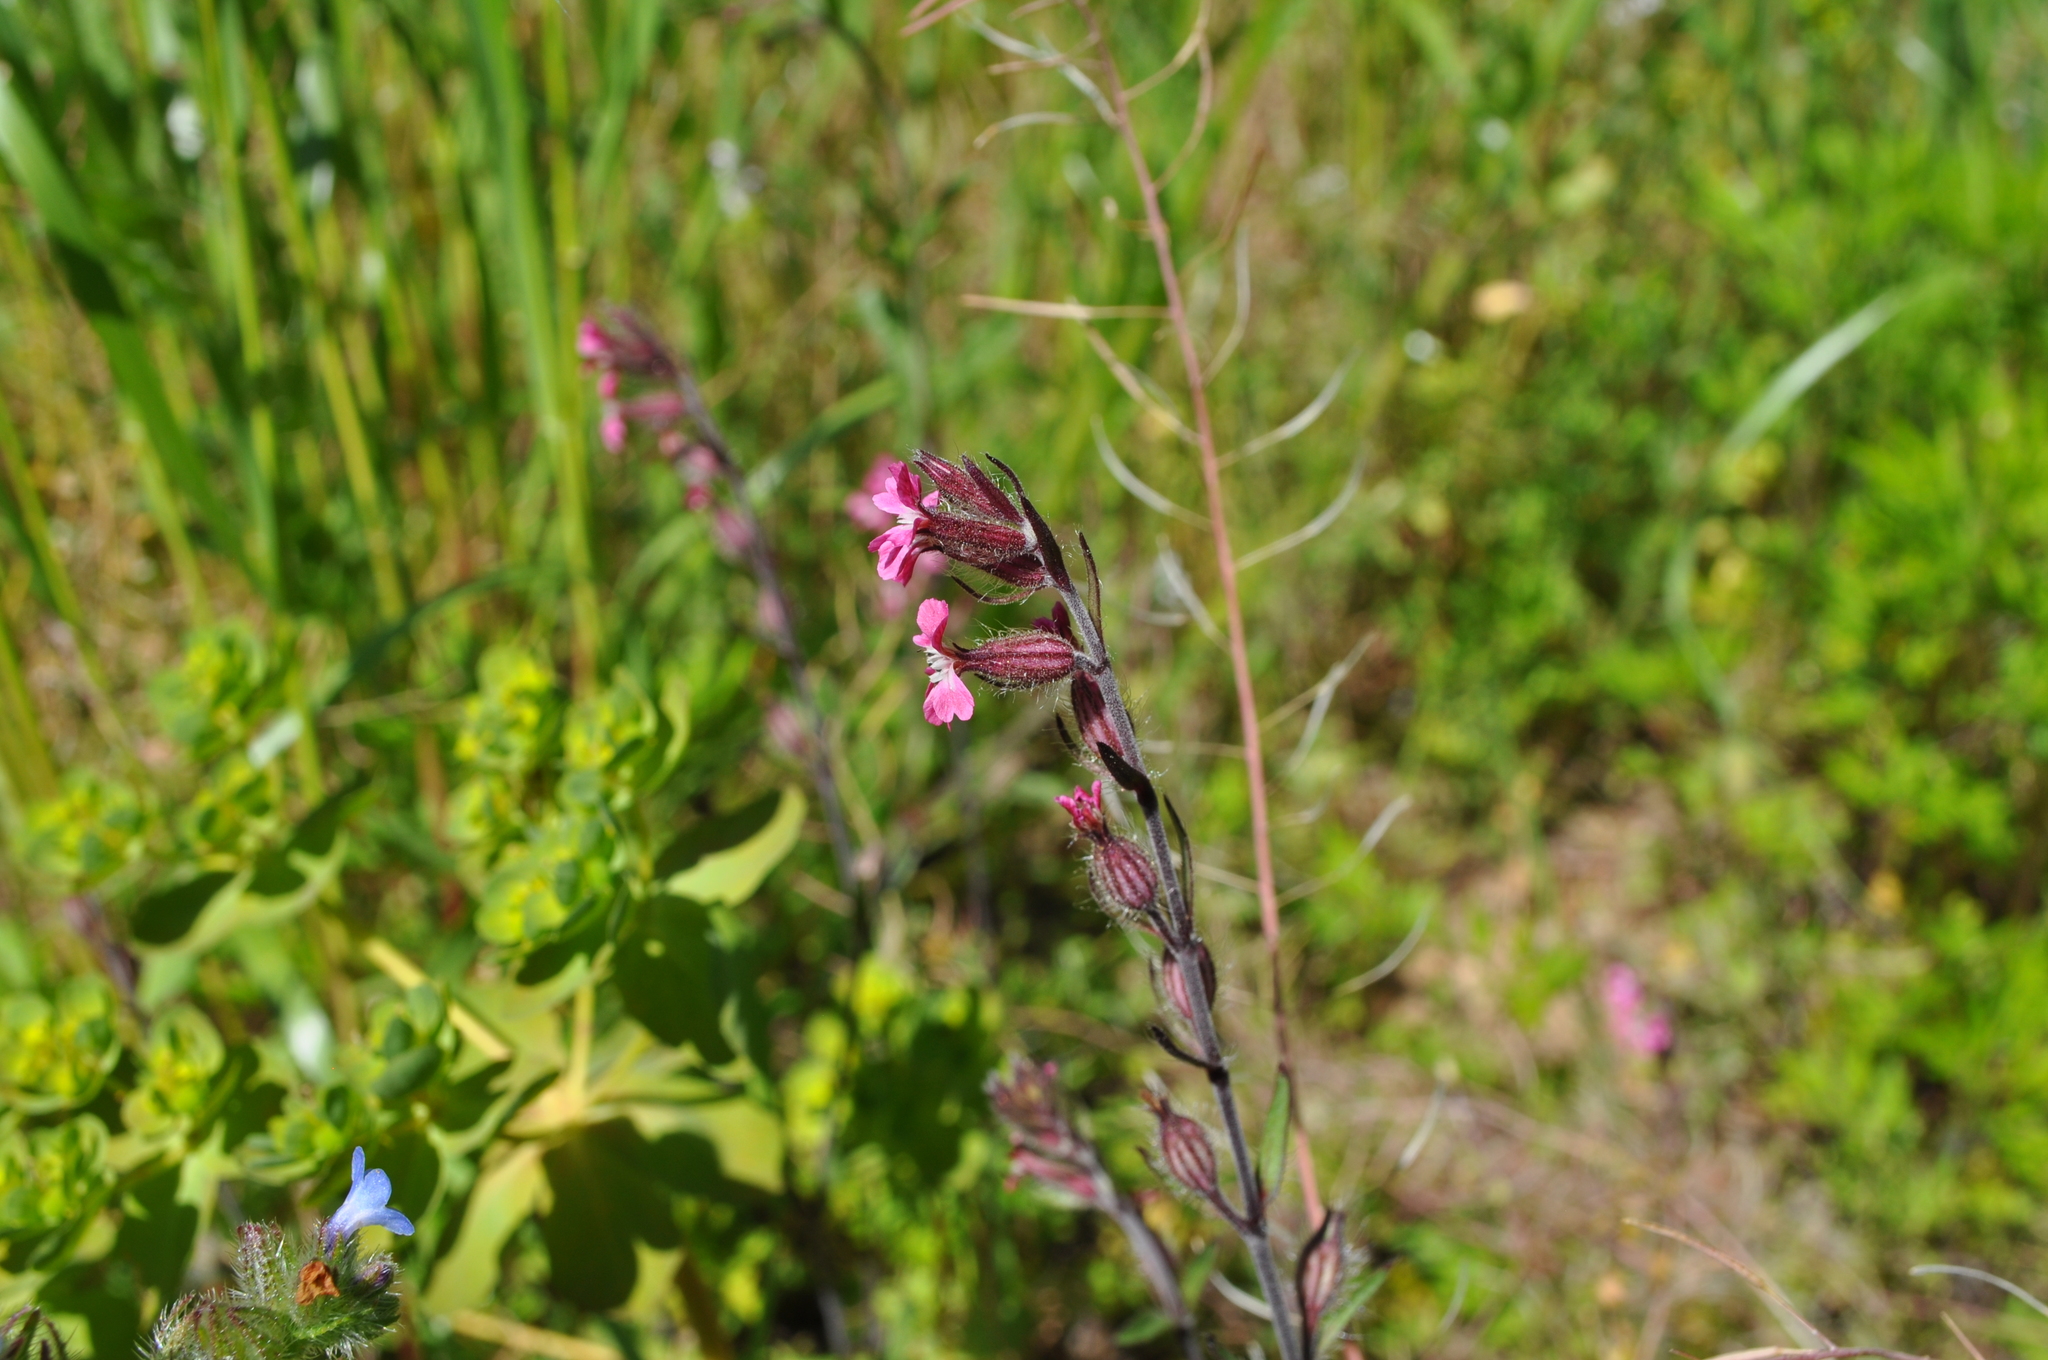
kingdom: Plantae
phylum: Tracheophyta
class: Magnoliopsida
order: Caryophyllales
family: Caryophyllaceae
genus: Silene
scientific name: Silene gallica
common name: Small-flowered catchfly
